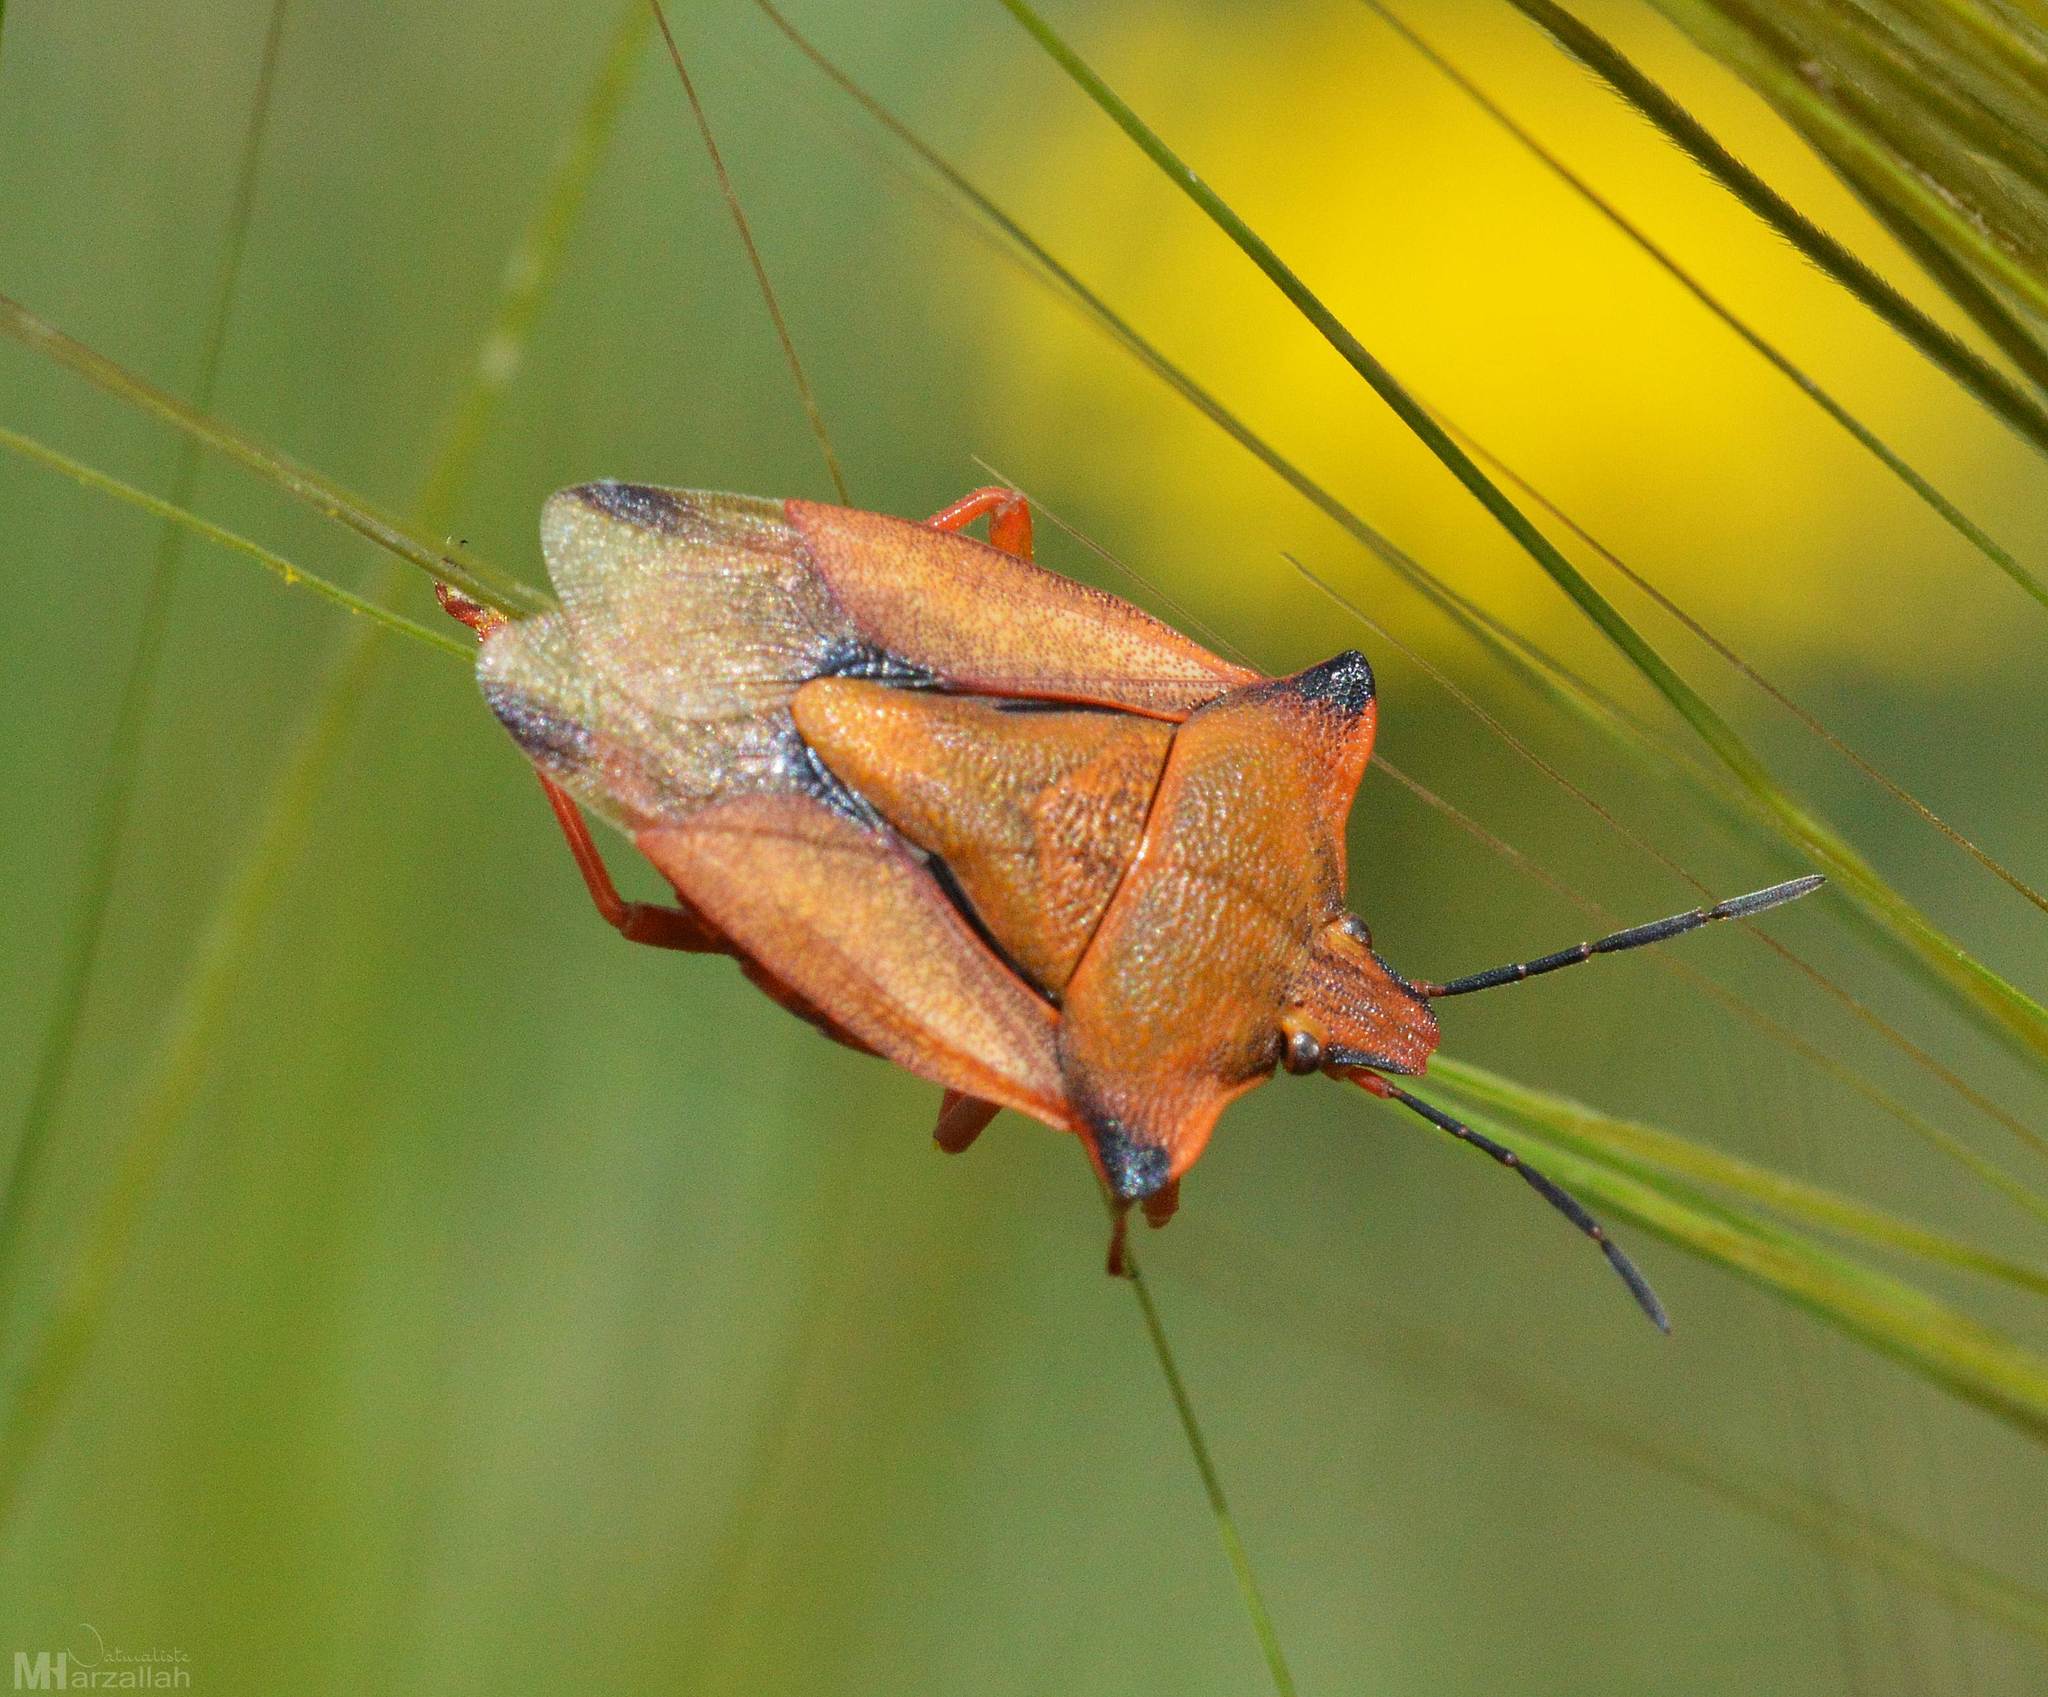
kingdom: Animalia
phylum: Arthropoda
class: Insecta
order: Hemiptera
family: Pentatomidae
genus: Carpocoris
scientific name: Carpocoris mediterraneus
